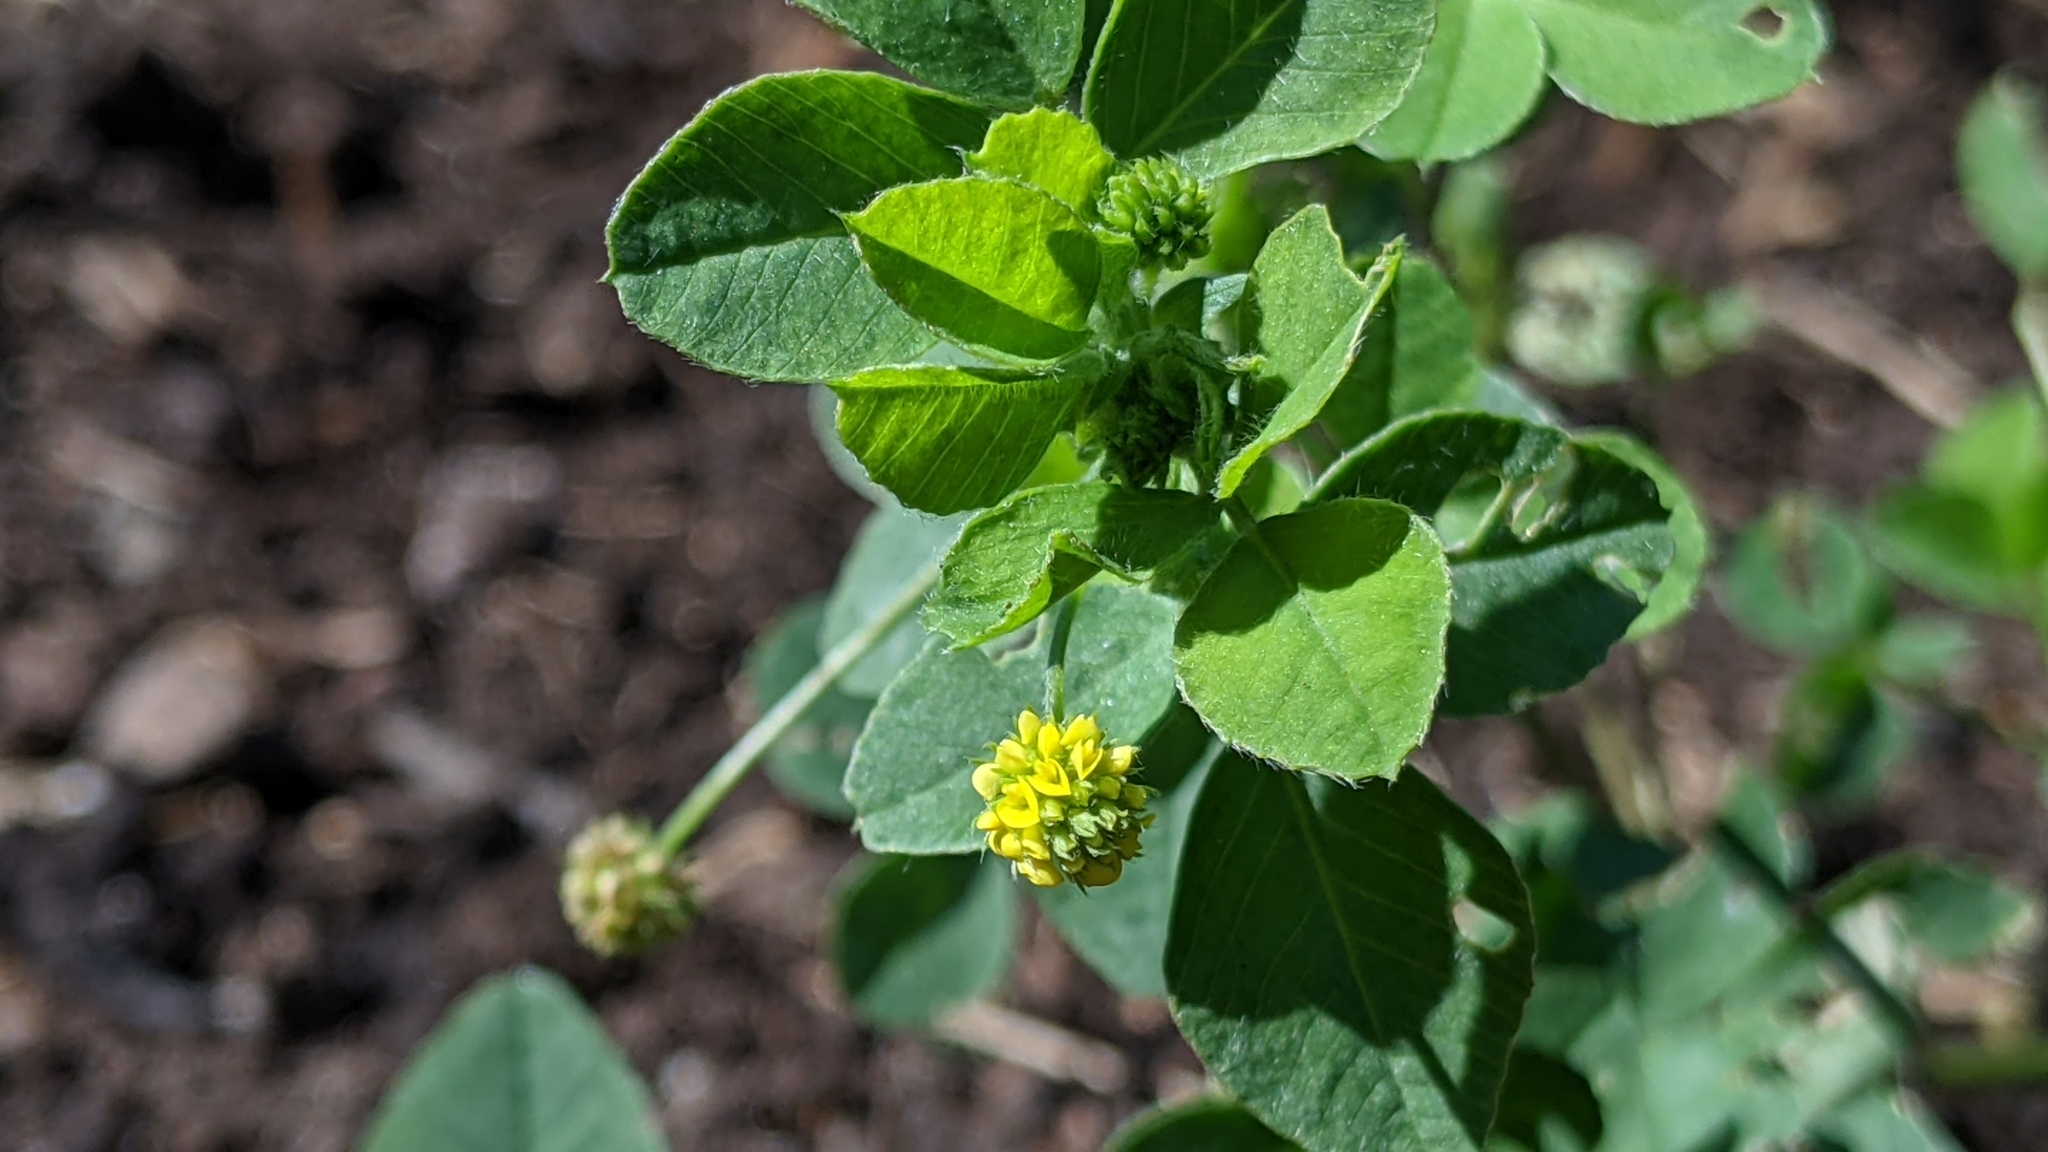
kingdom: Plantae
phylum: Tracheophyta
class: Magnoliopsida
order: Fabales
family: Fabaceae
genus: Medicago
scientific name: Medicago lupulina
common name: Black medick
